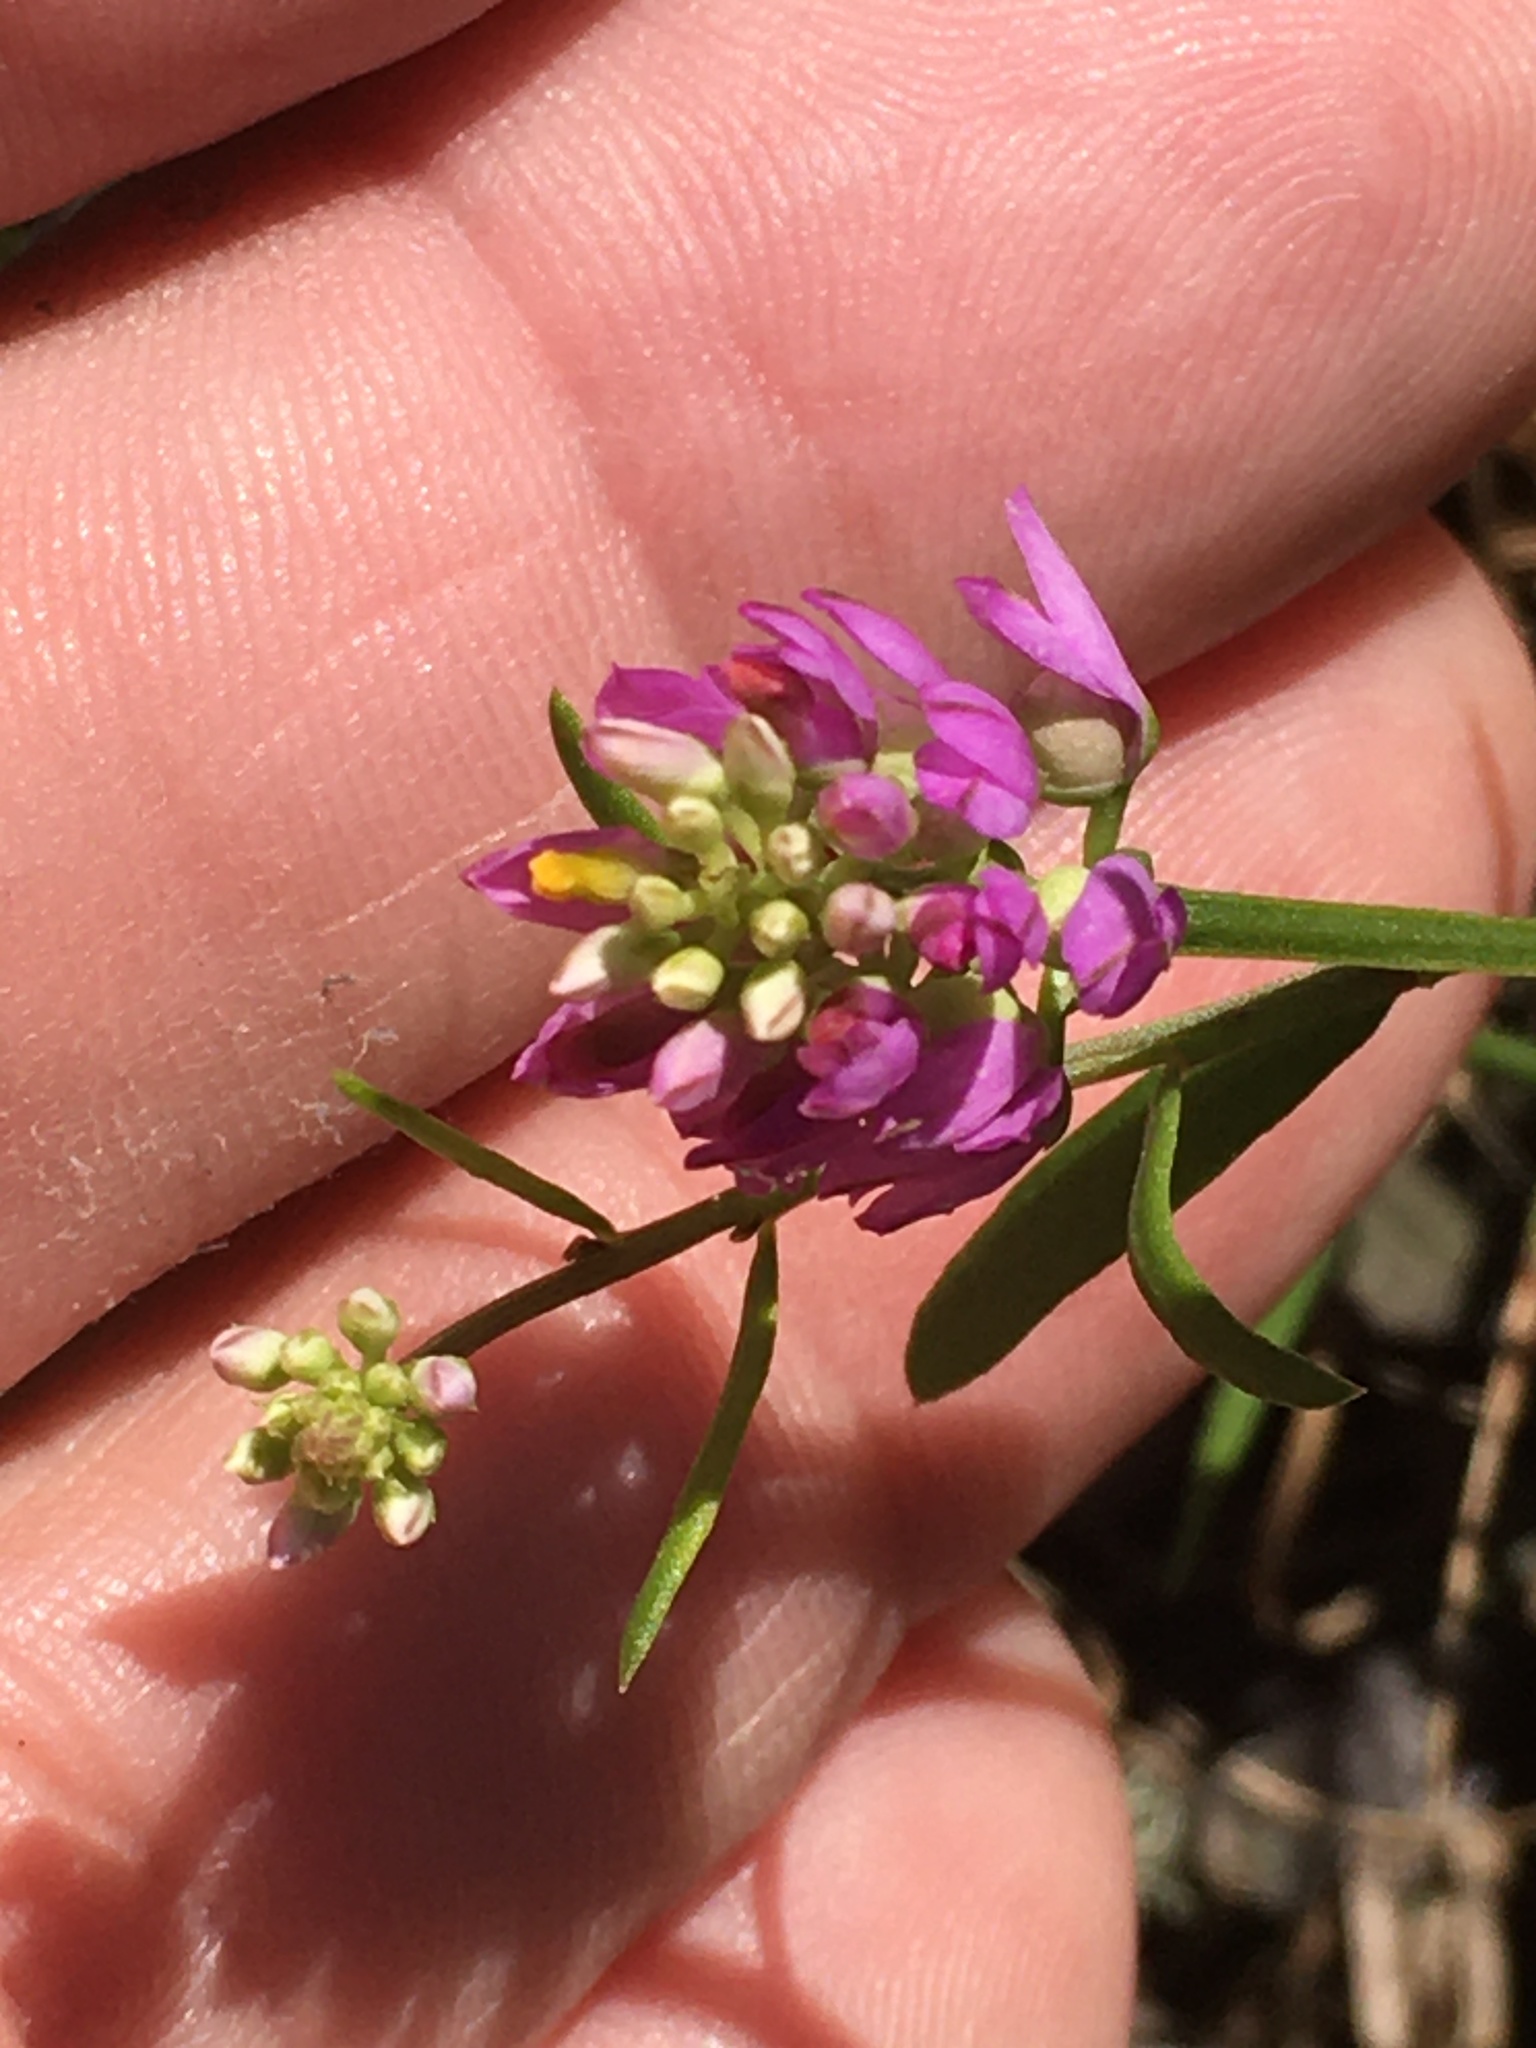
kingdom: Plantae
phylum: Tracheophyta
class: Magnoliopsida
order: Fabales
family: Polygalaceae
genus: Polygala
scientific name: Polygala curtissii
